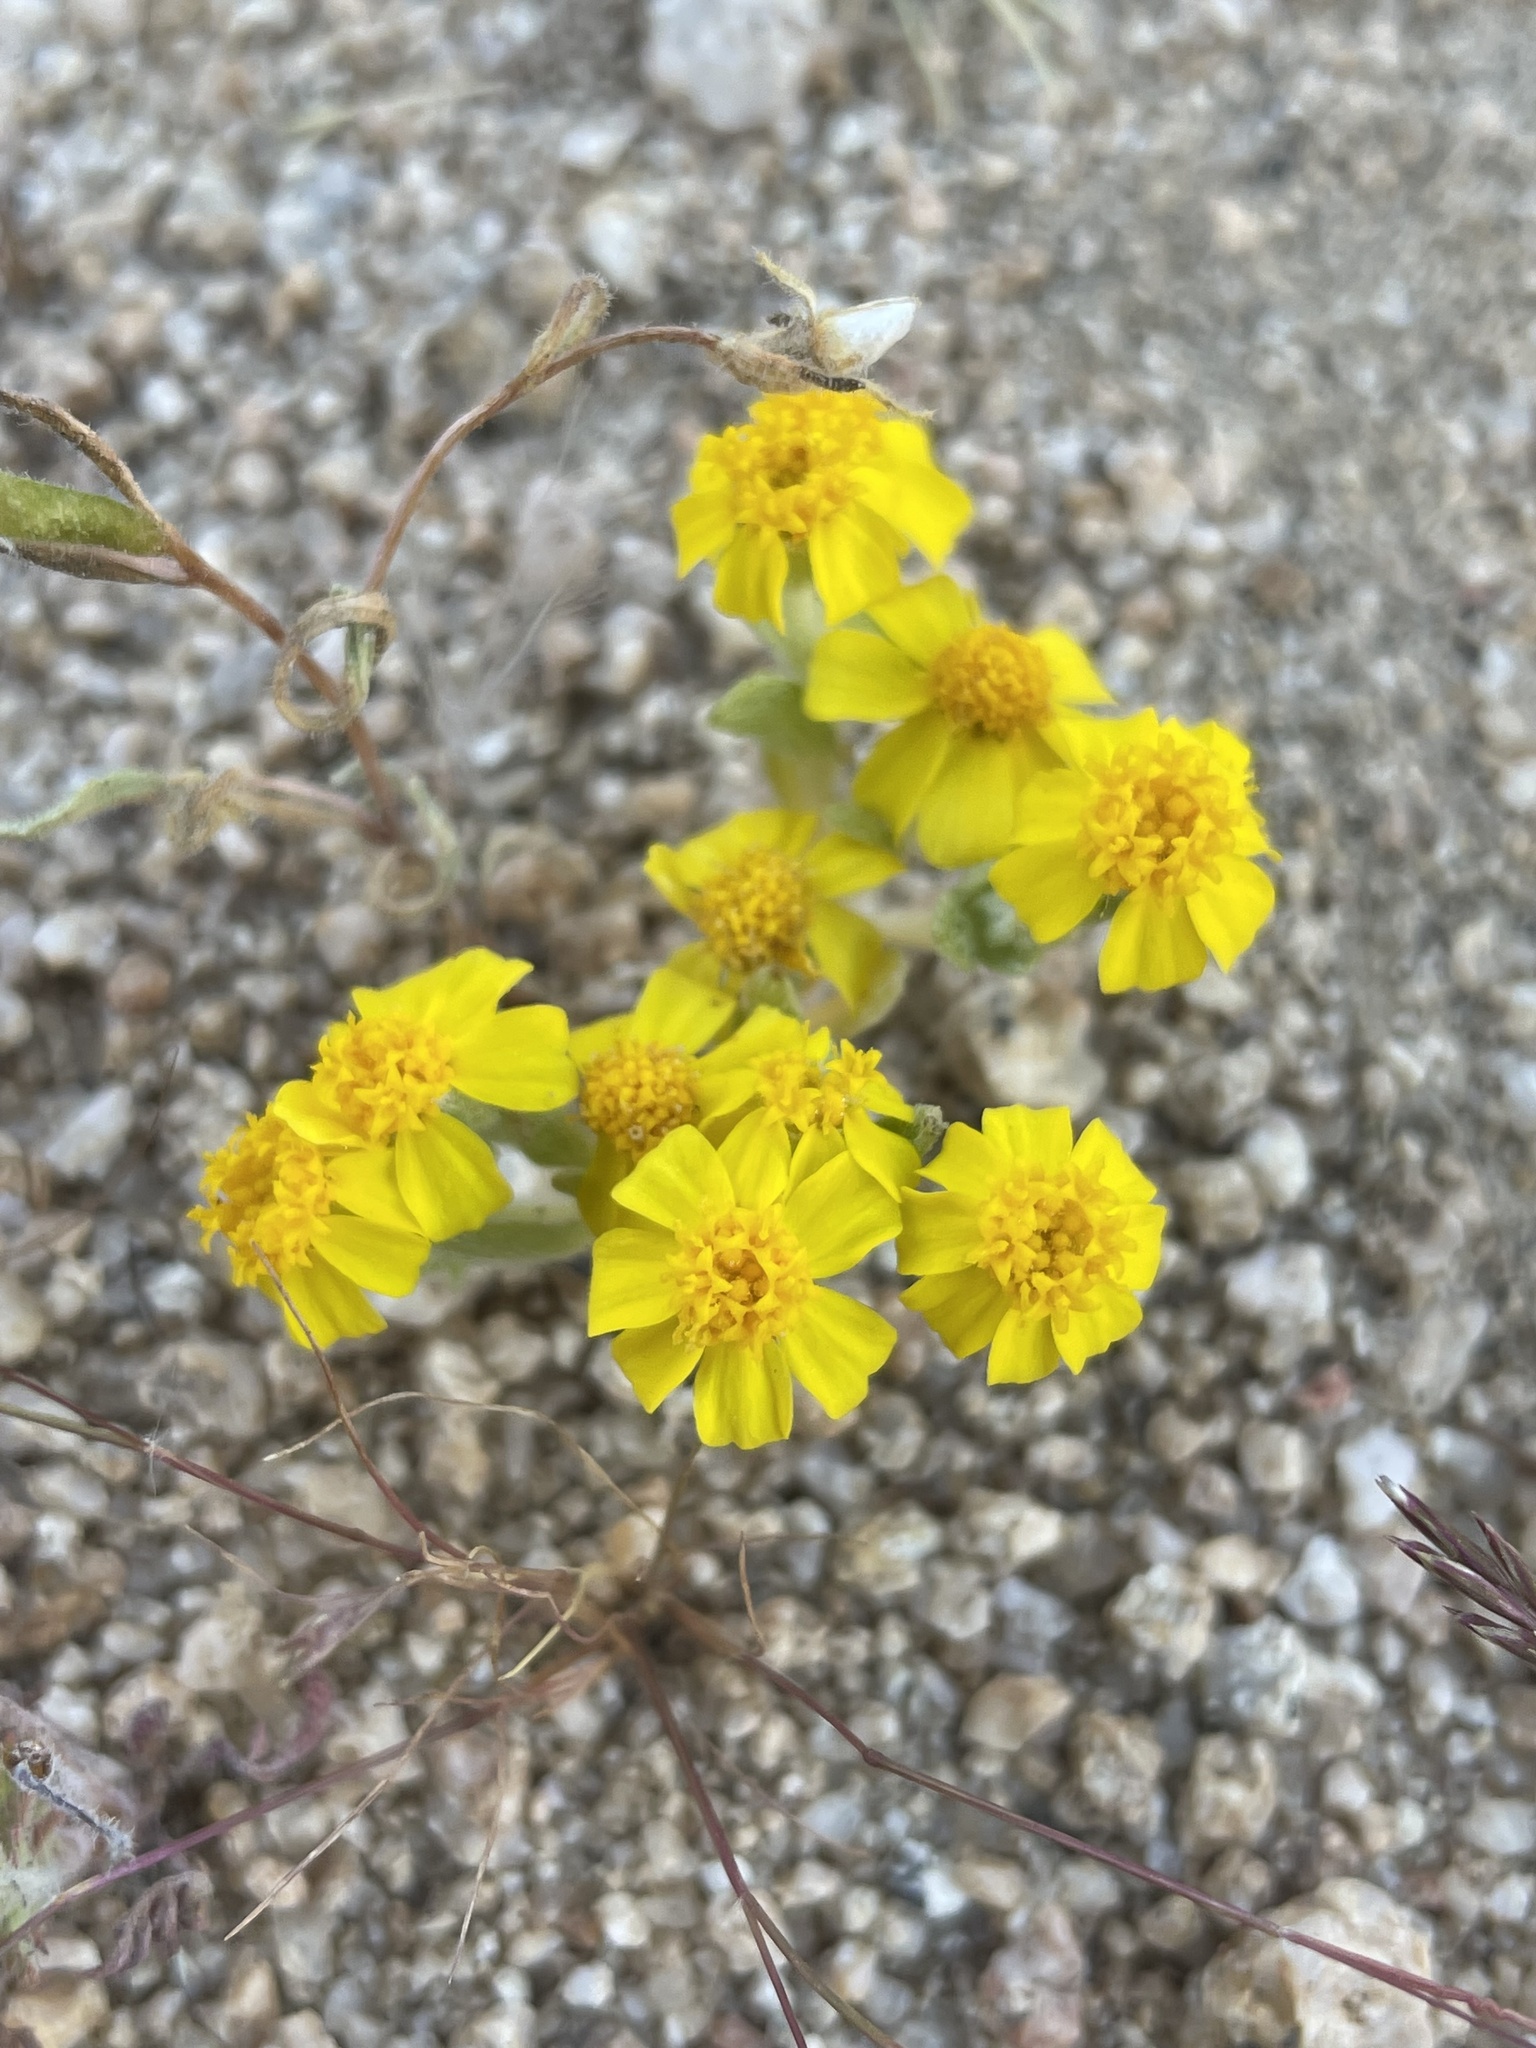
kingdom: Plantae
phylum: Tracheophyta
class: Magnoliopsida
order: Asterales
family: Asteraceae
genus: Eriophyllum
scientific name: Eriophyllum wallacei
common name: Wallace's woolly daisy
